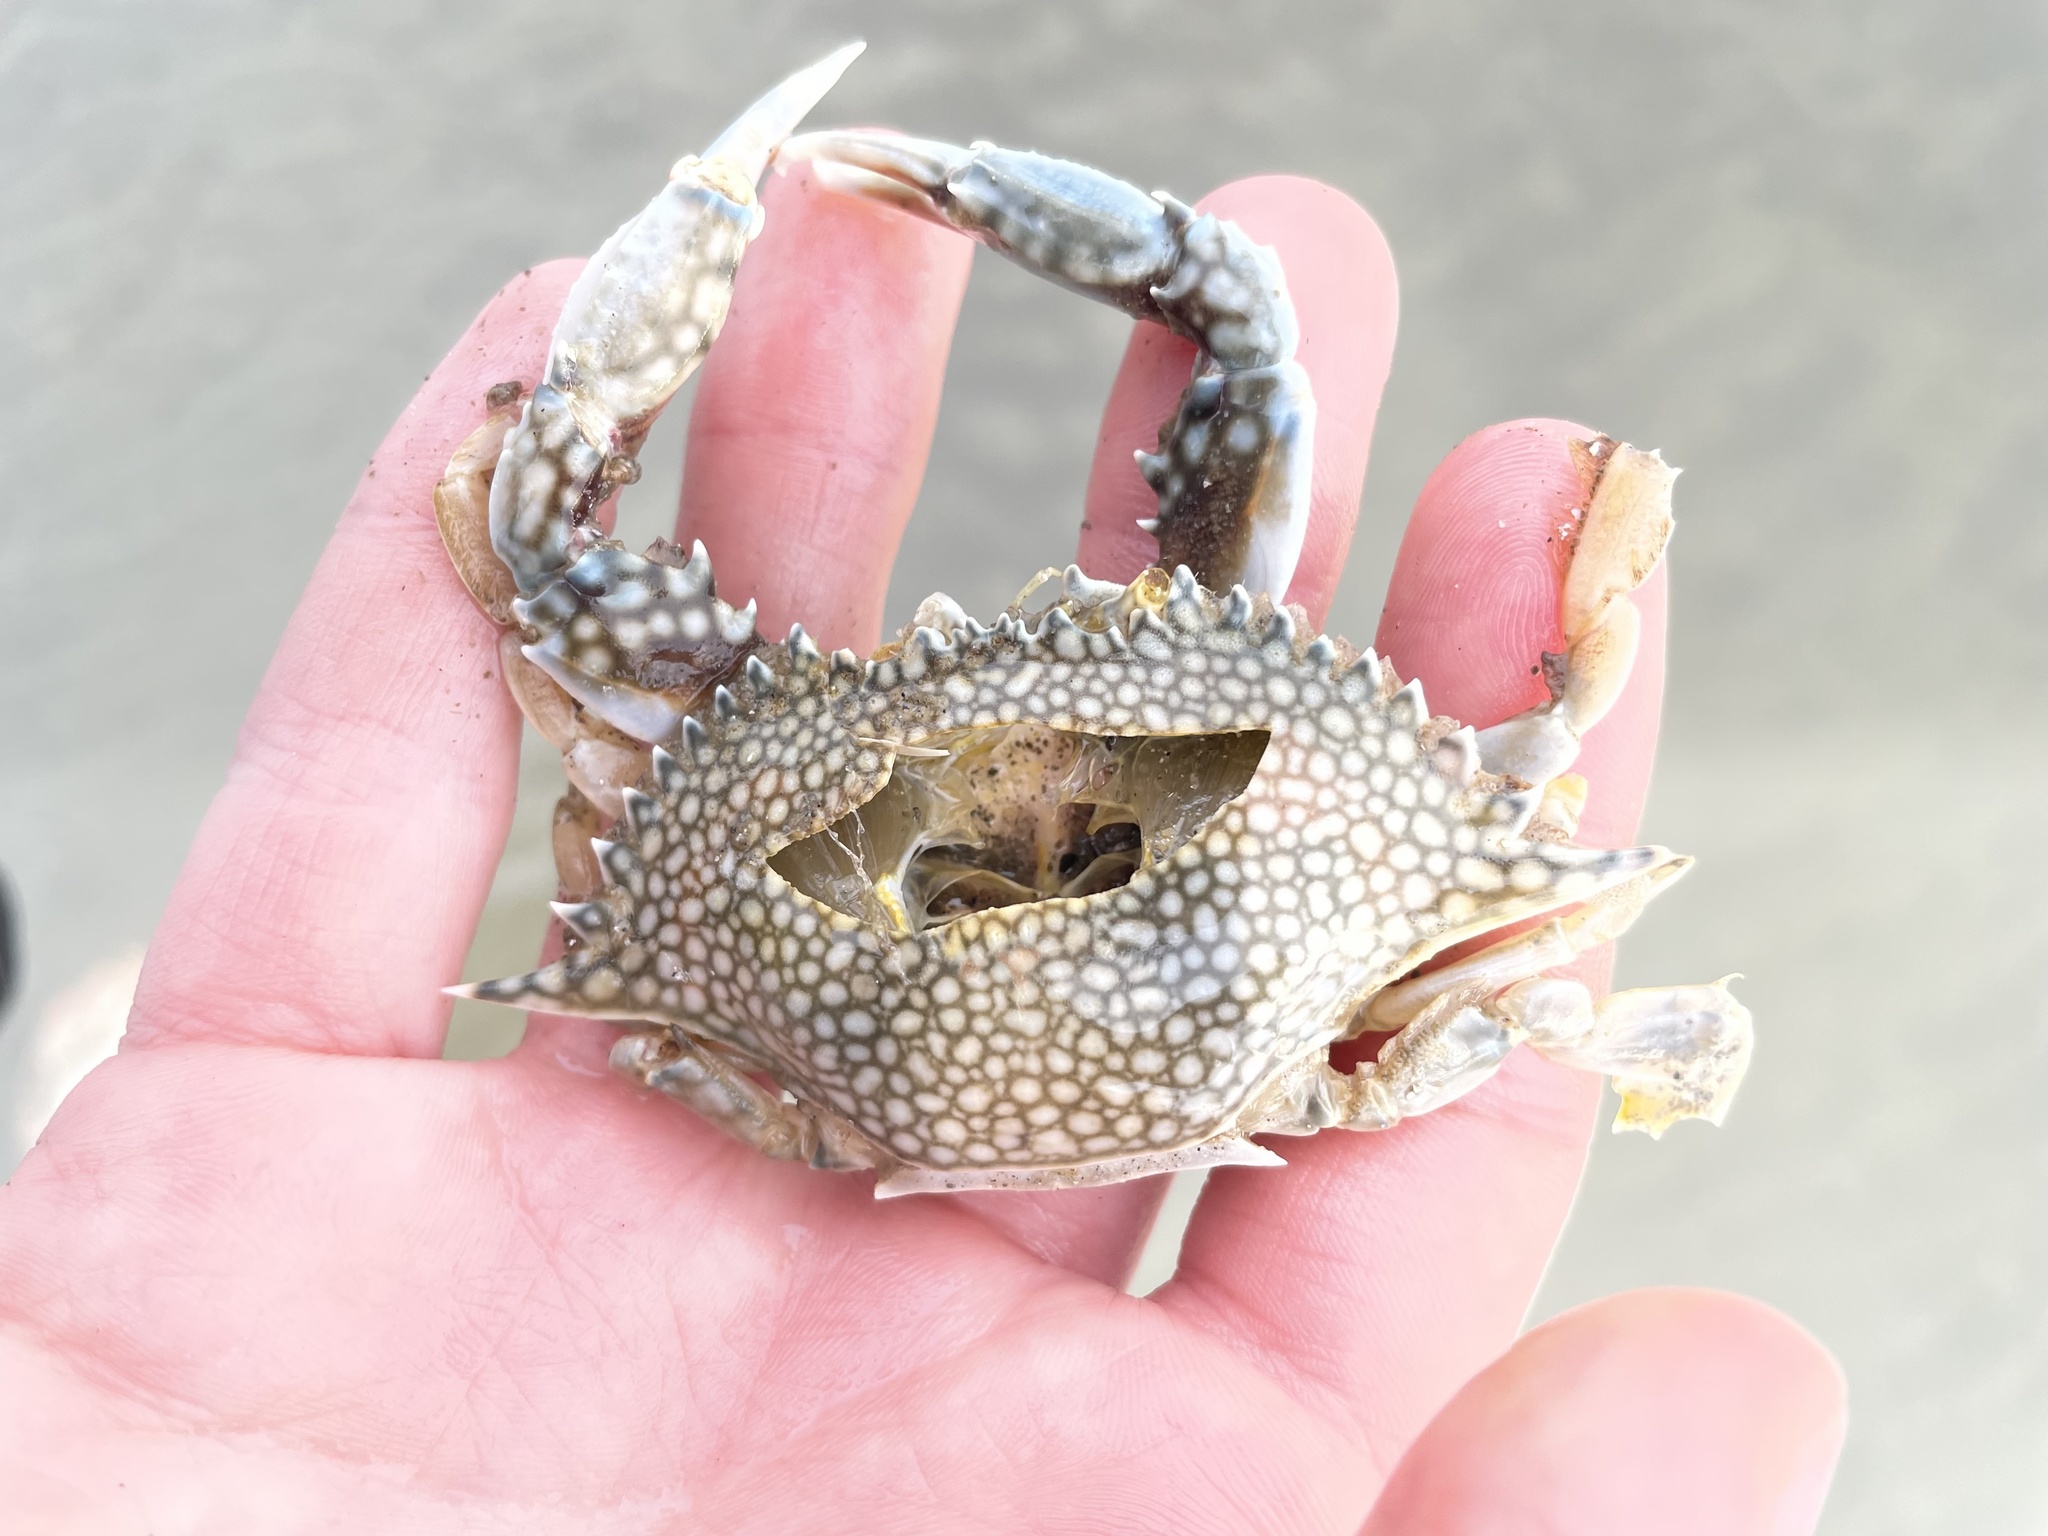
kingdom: Animalia
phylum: Arthropoda
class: Malacostraca
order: Decapoda
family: Portunidae
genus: Arenaeus
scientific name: Arenaeus cribrarius
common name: Speckled crab
